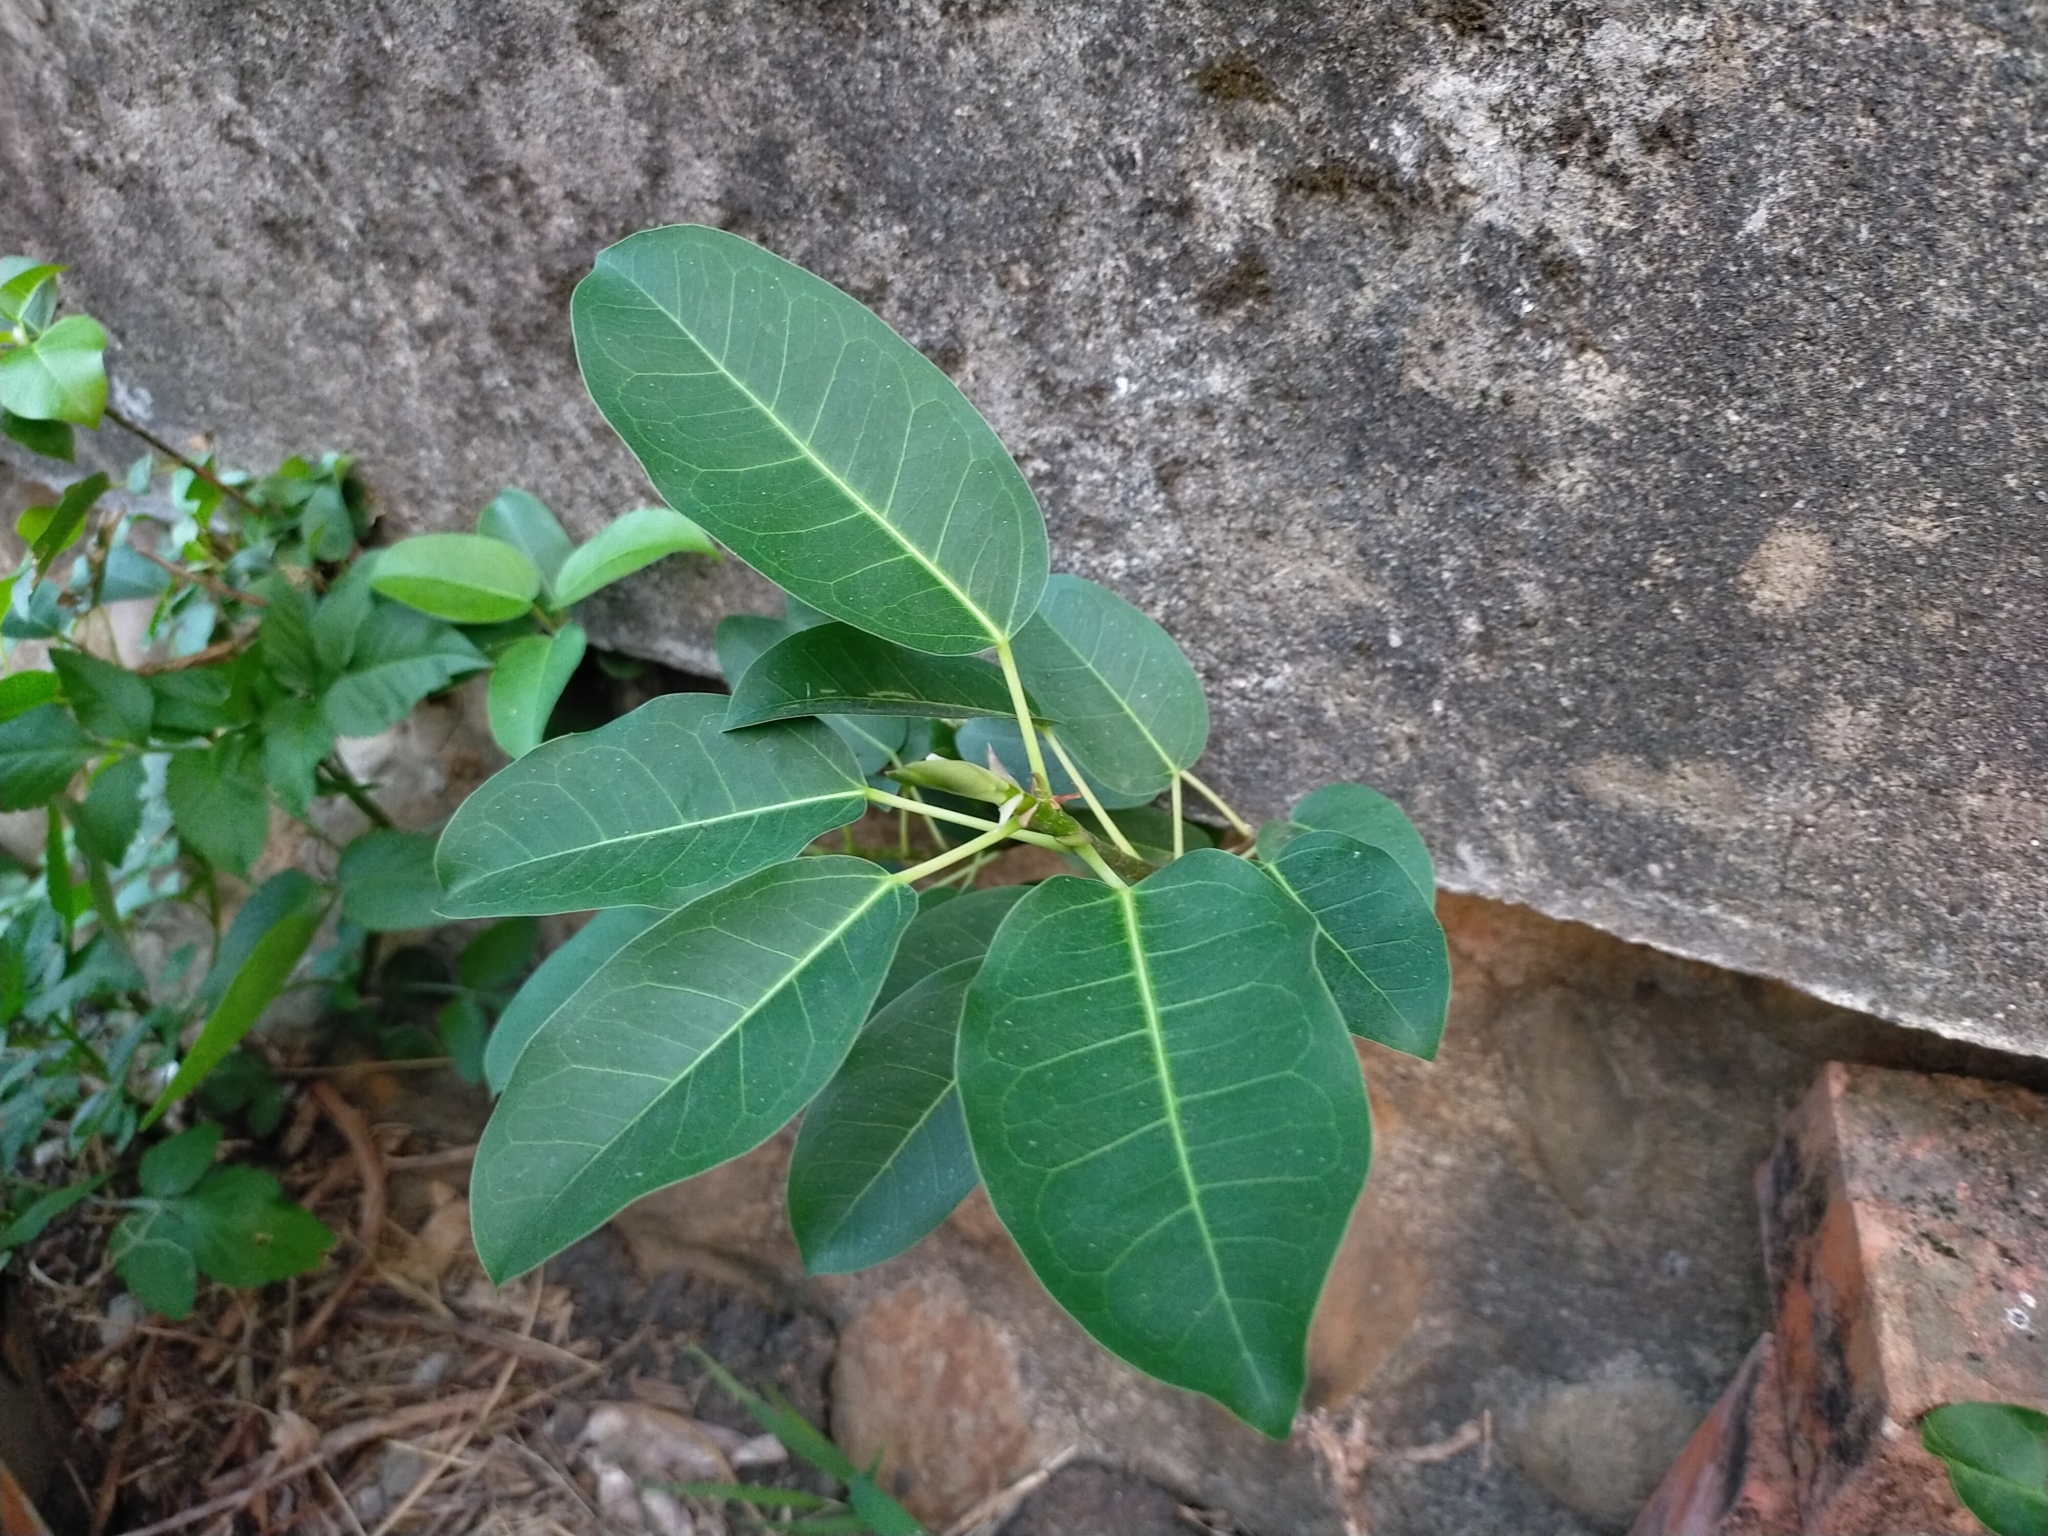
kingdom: Plantae
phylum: Tracheophyta
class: Magnoliopsida
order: Rosales
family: Moraceae
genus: Ficus
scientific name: Ficus subpisocarpa
